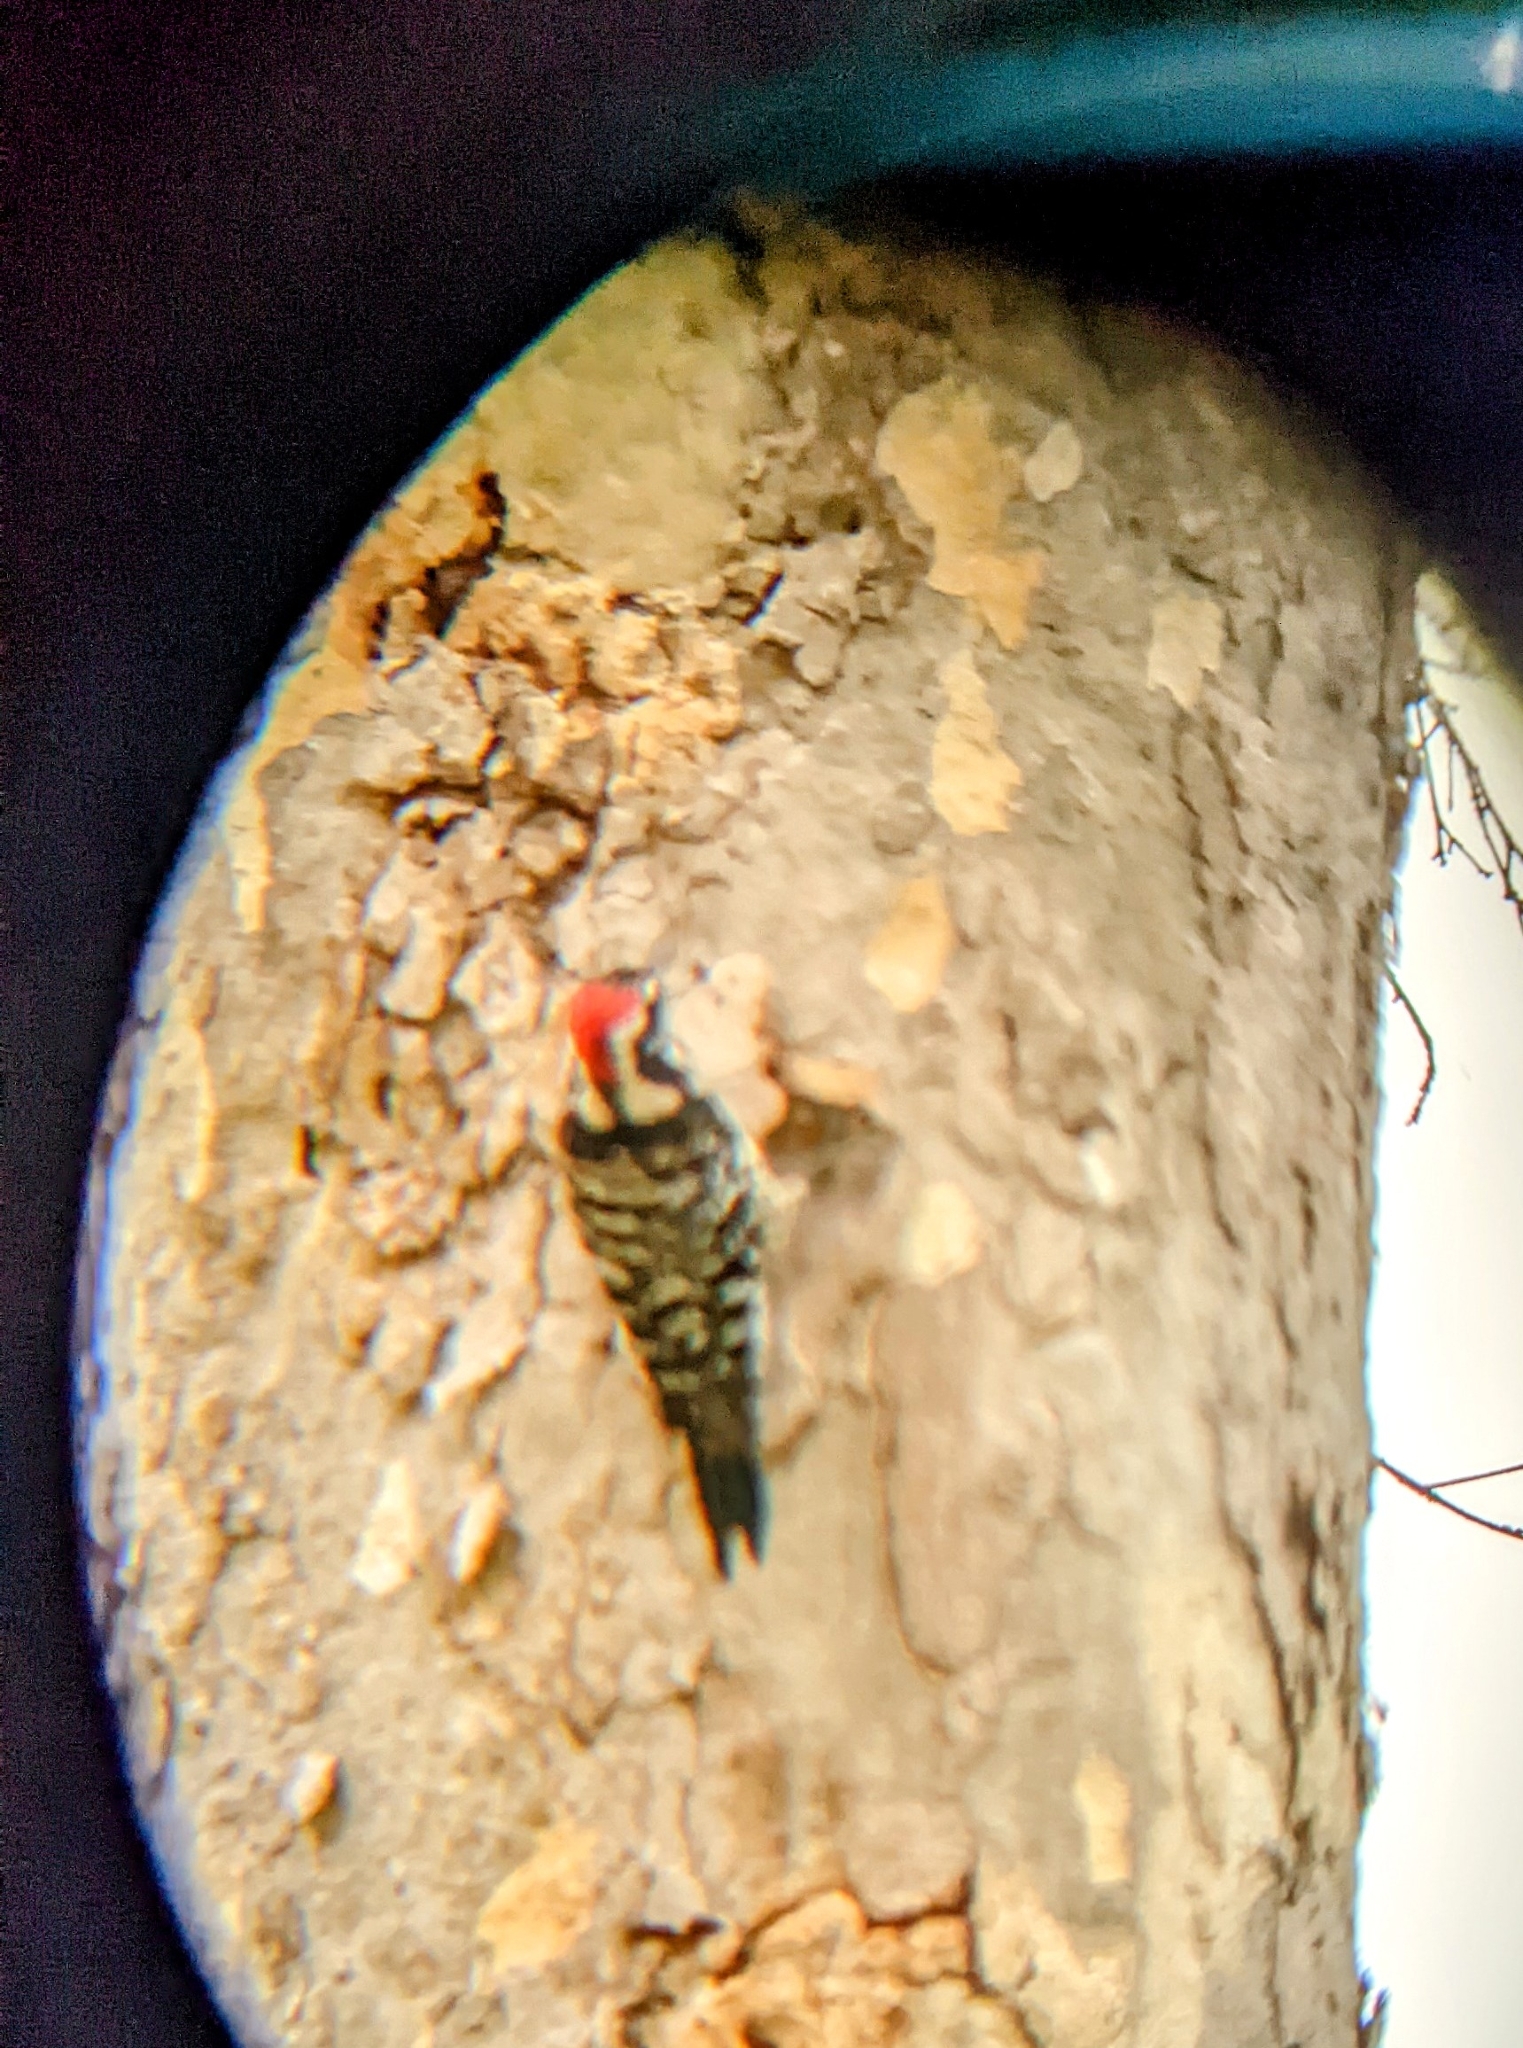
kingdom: Animalia
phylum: Chordata
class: Aves
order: Piciformes
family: Picidae
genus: Dryobates
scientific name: Dryobates nuttallii
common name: Nuttall's woodpecker
